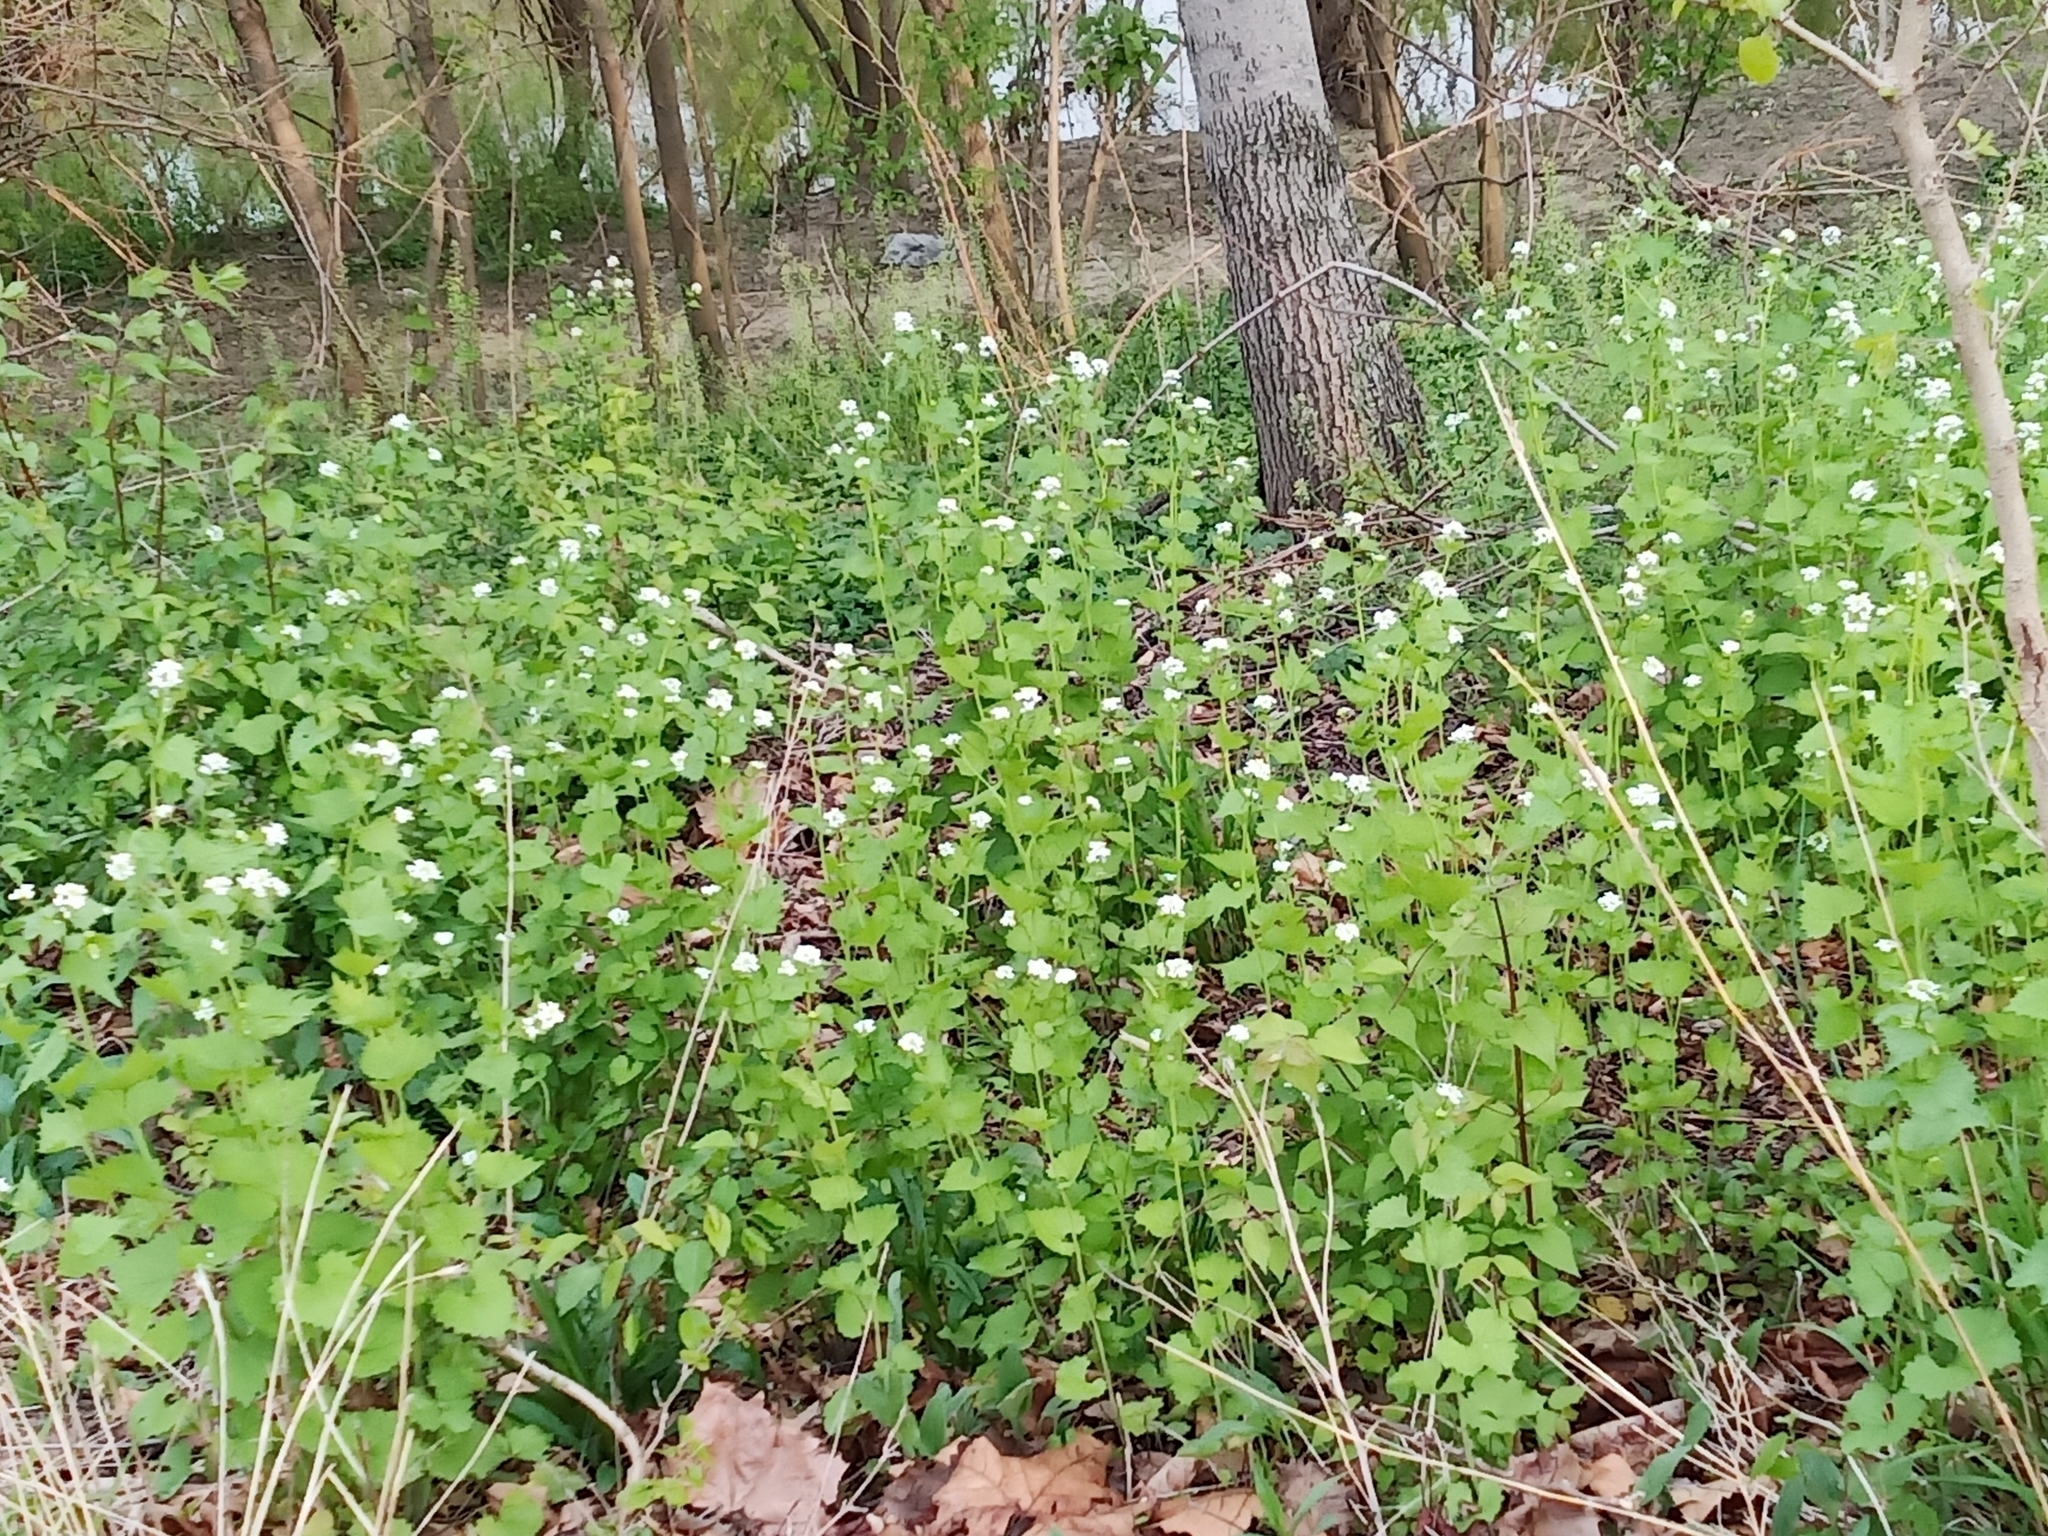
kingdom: Plantae
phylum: Tracheophyta
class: Magnoliopsida
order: Brassicales
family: Brassicaceae
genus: Alliaria
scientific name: Alliaria petiolata
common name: Garlic mustard
